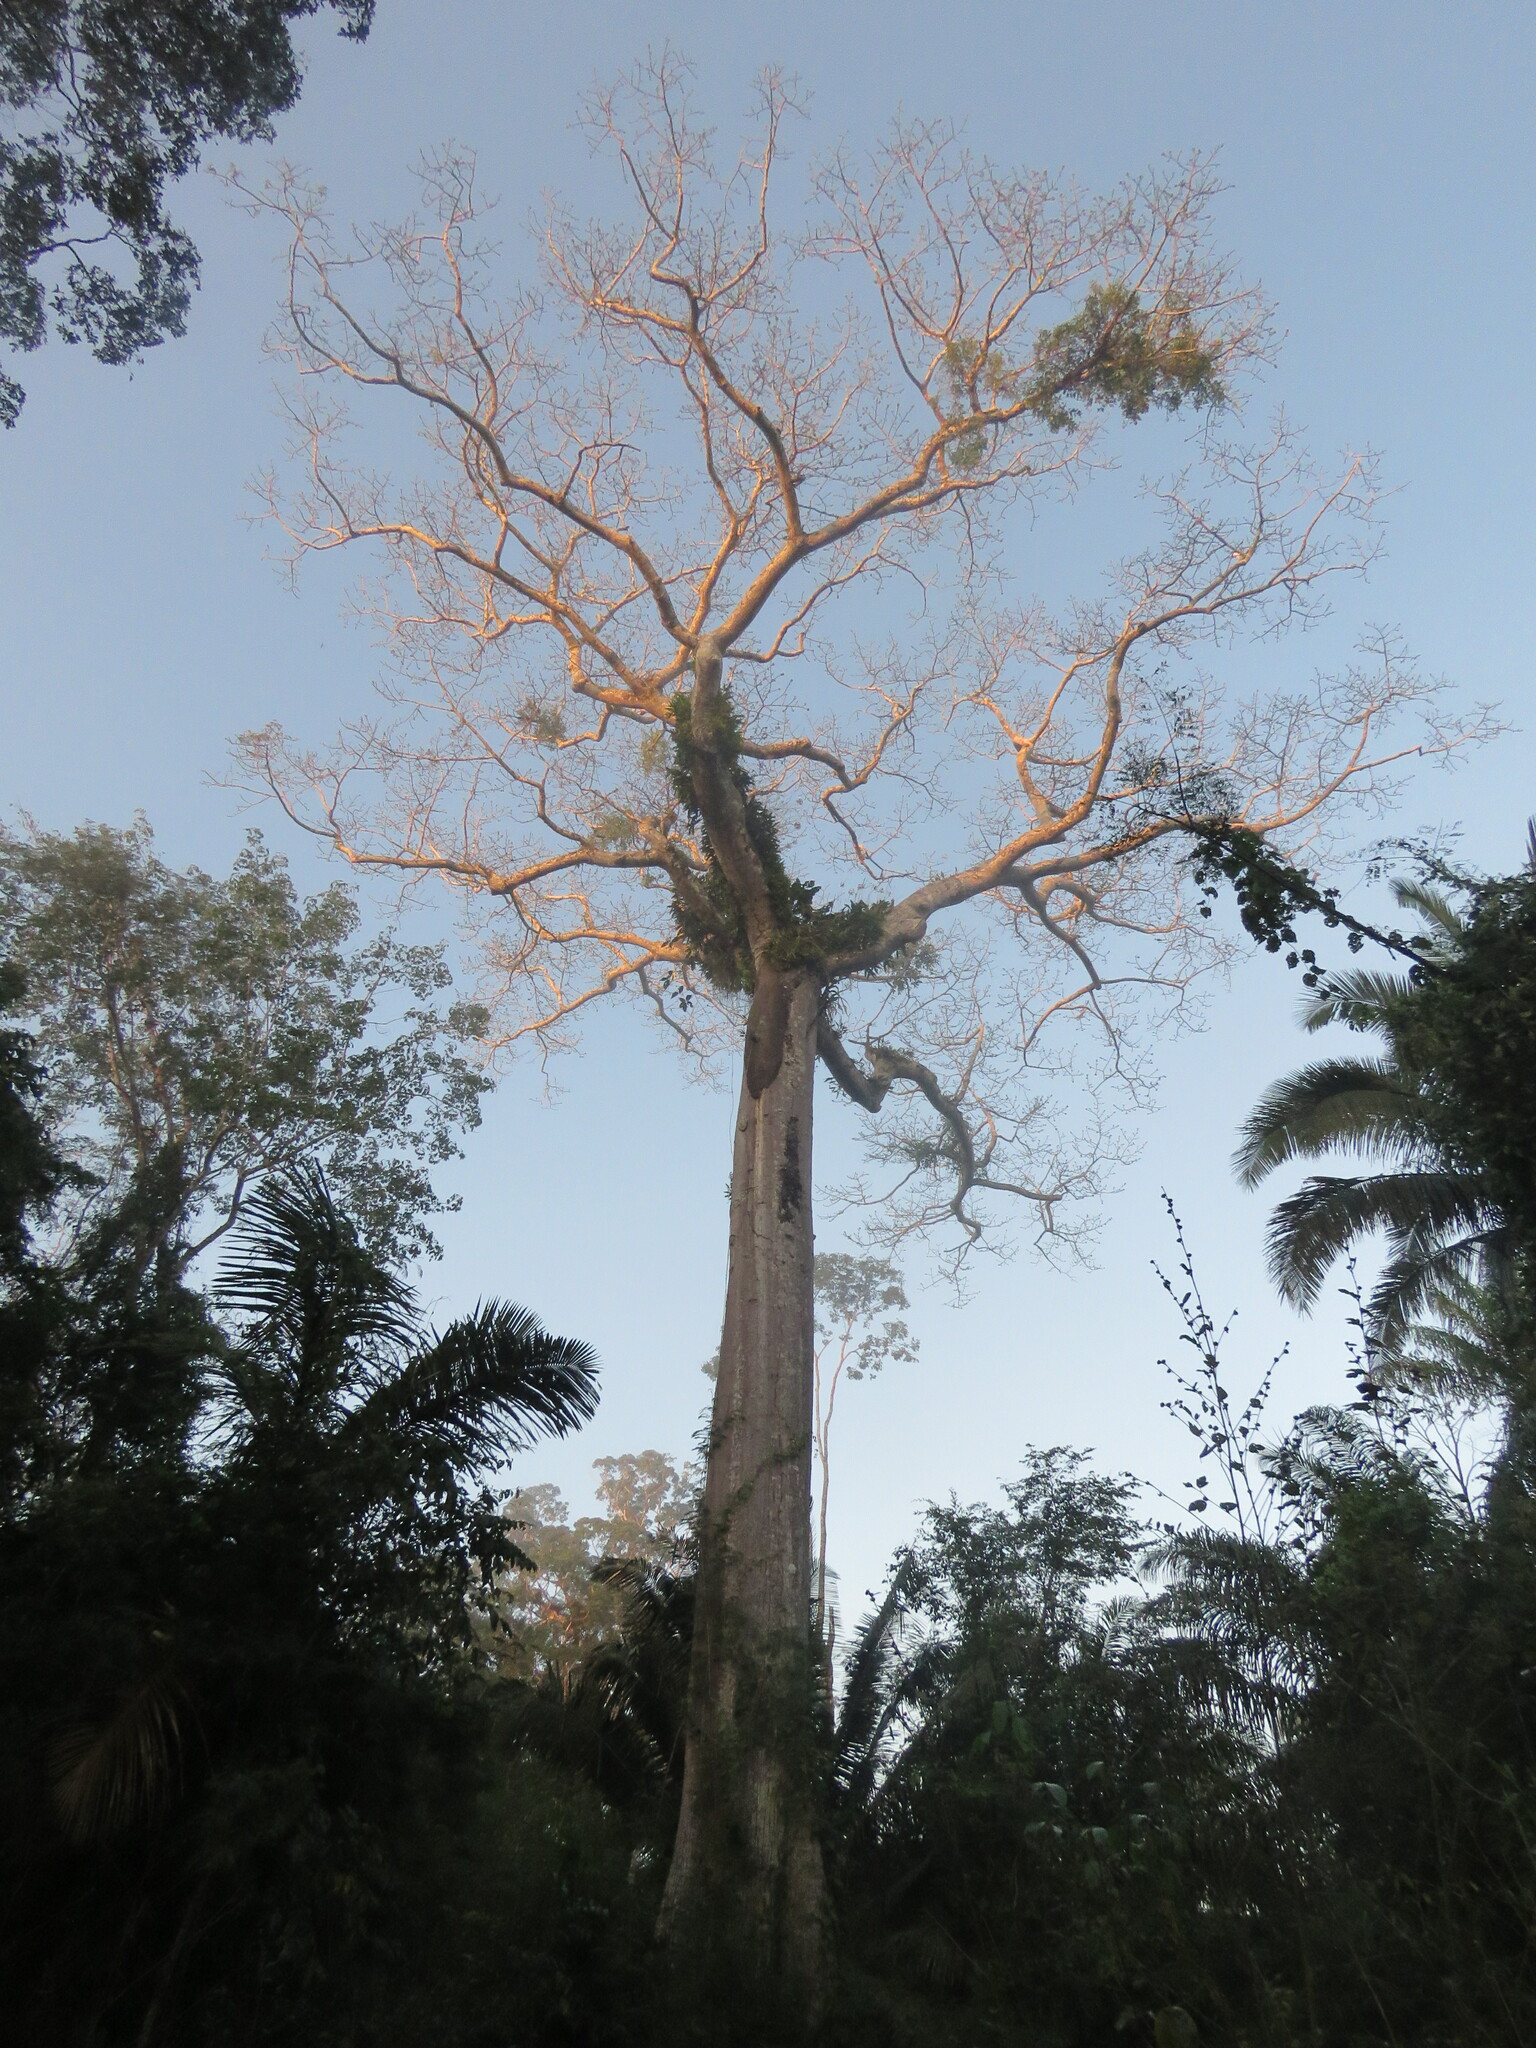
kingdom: Plantae
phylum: Tracheophyta
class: Magnoliopsida
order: Malvales
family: Malvaceae
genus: Ceiba
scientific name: Ceiba pentandra
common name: Kapok
